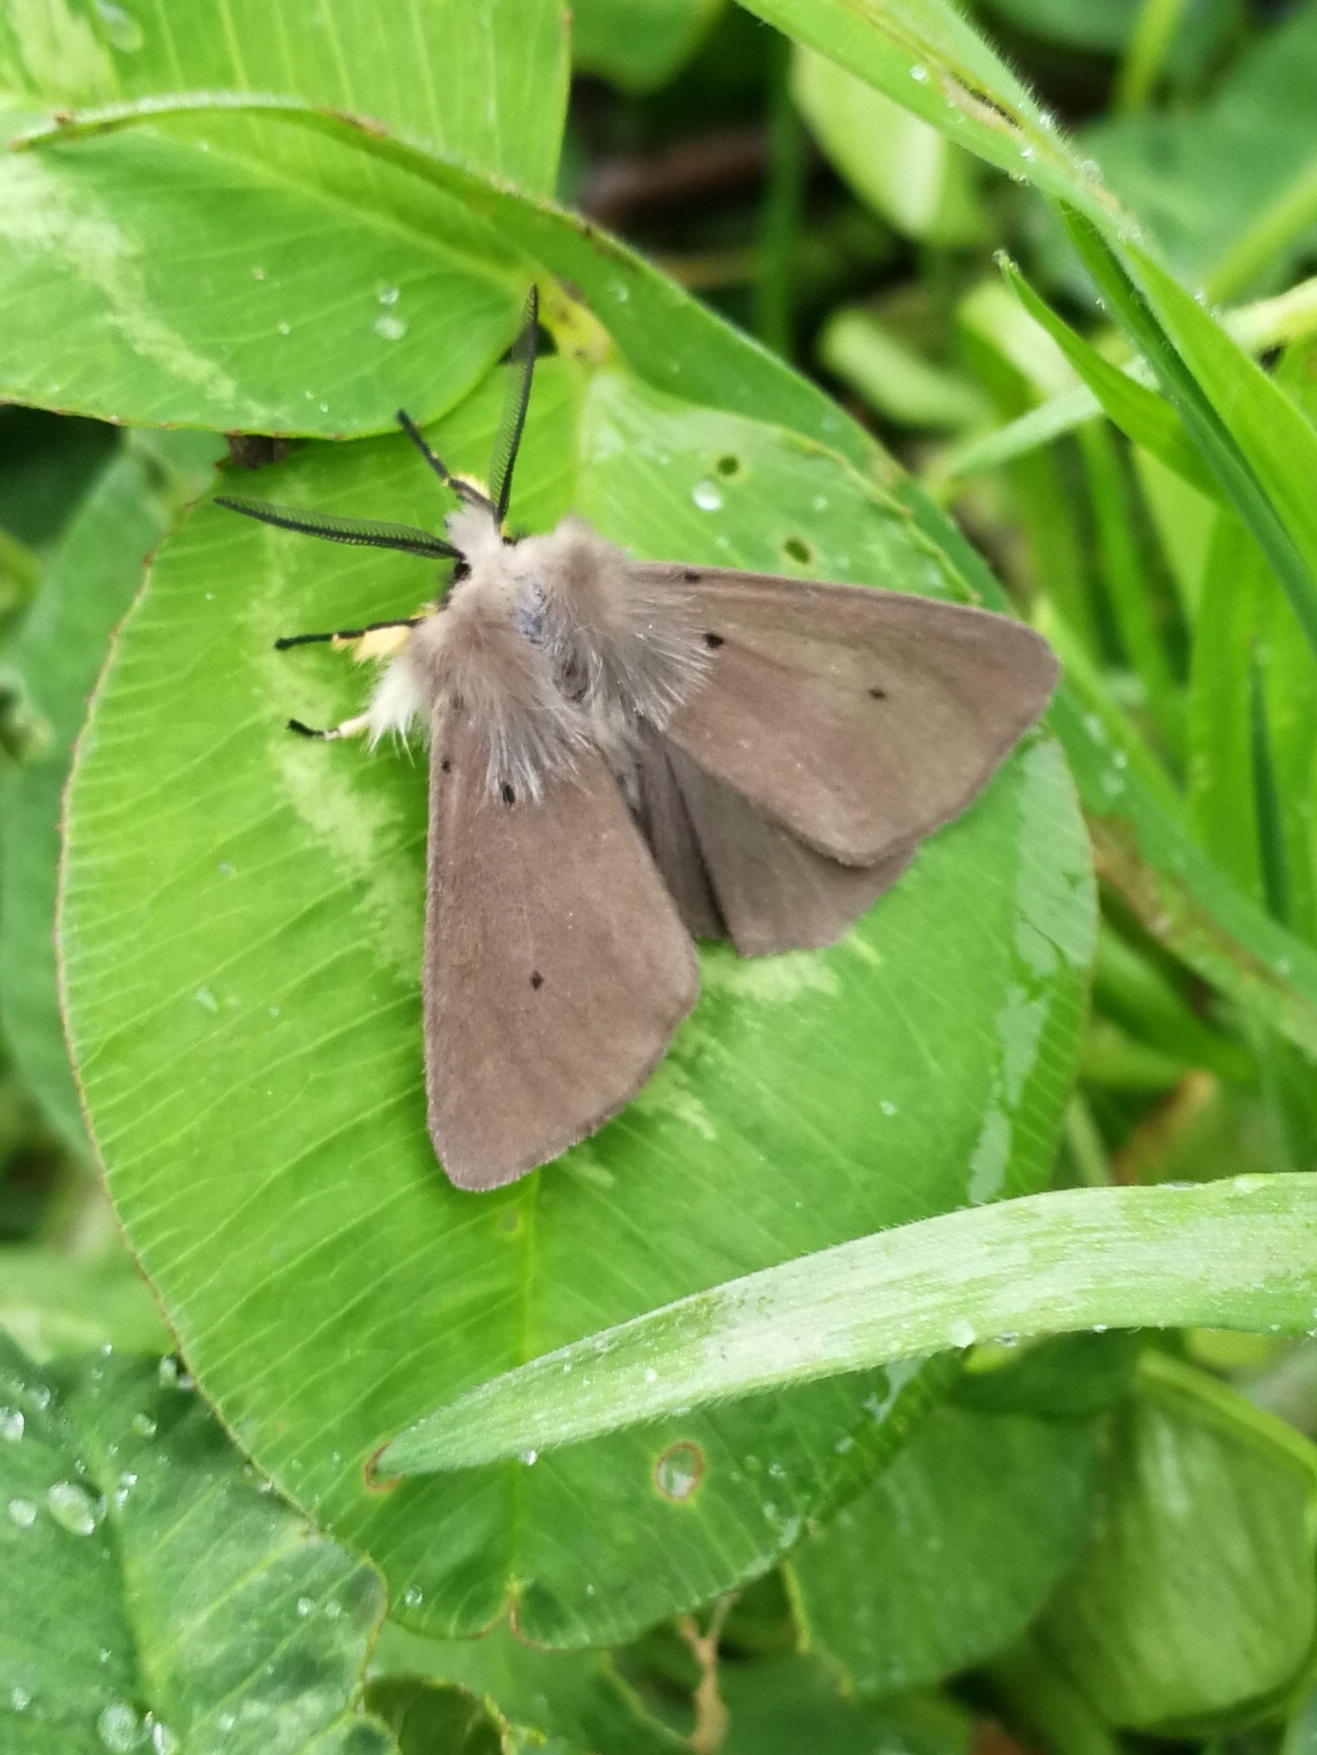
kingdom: Animalia
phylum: Arthropoda
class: Insecta
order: Lepidoptera
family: Erebidae
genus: Diaphora
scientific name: Diaphora mendica
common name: Muslin moth
